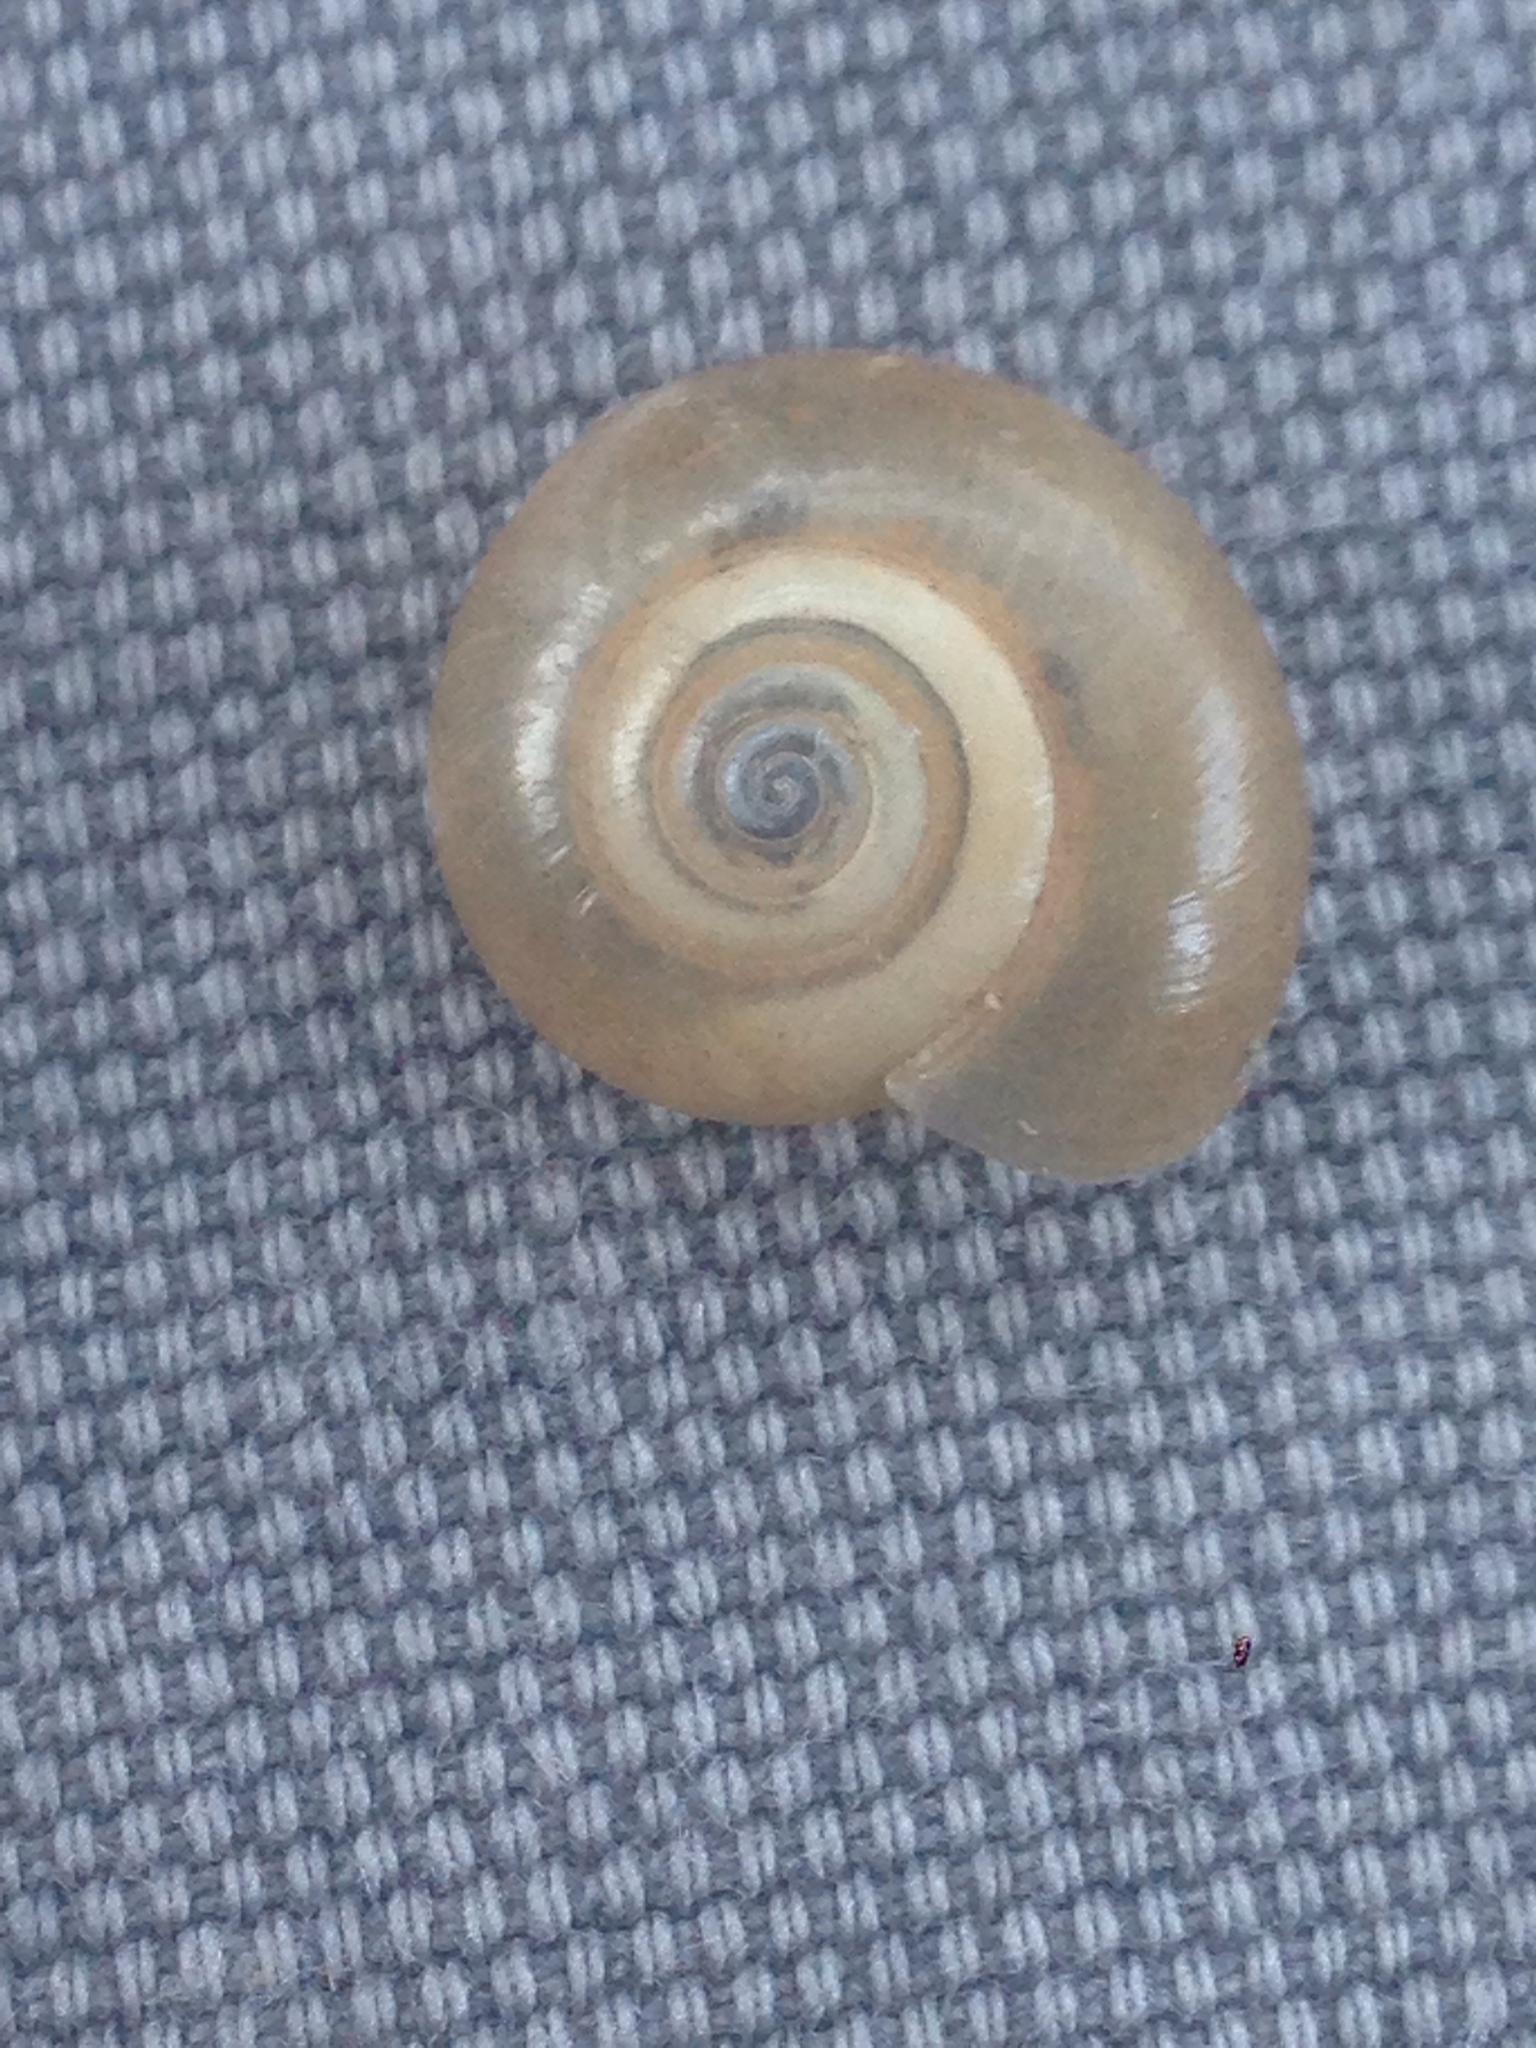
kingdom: Animalia
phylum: Mollusca
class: Gastropoda
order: Stylommatophora
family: Oxychilidae
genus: Oxychilus
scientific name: Oxychilus
